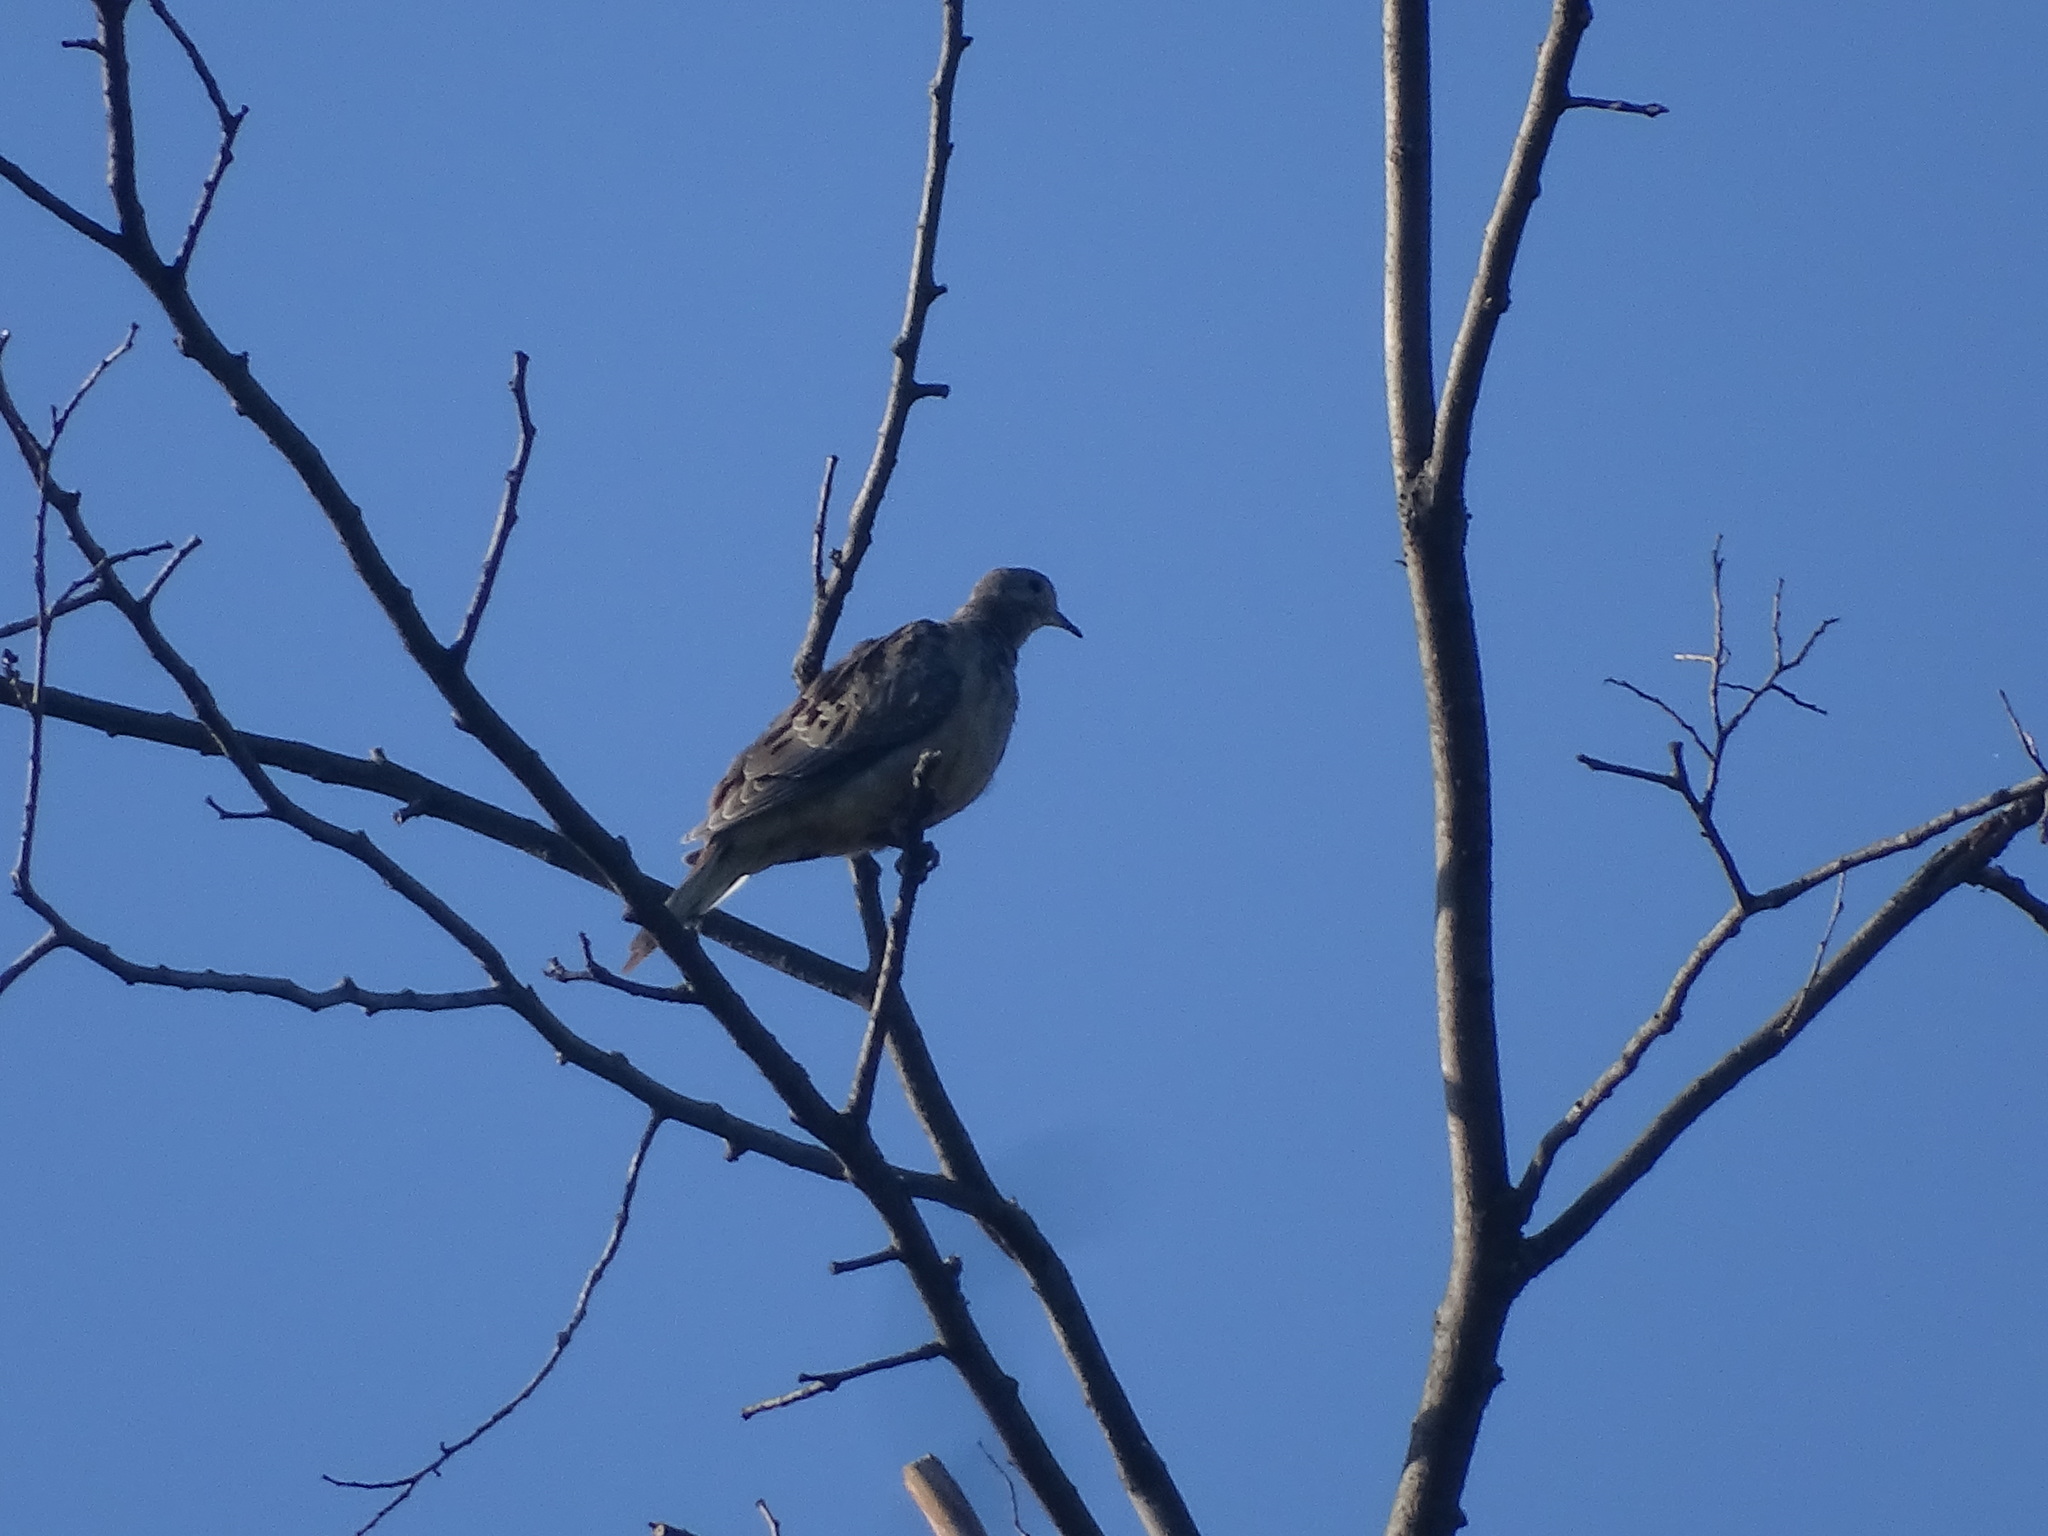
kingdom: Animalia
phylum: Chordata
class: Aves
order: Columbiformes
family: Columbidae
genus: Zenaida
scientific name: Zenaida macroura
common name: Mourning dove
